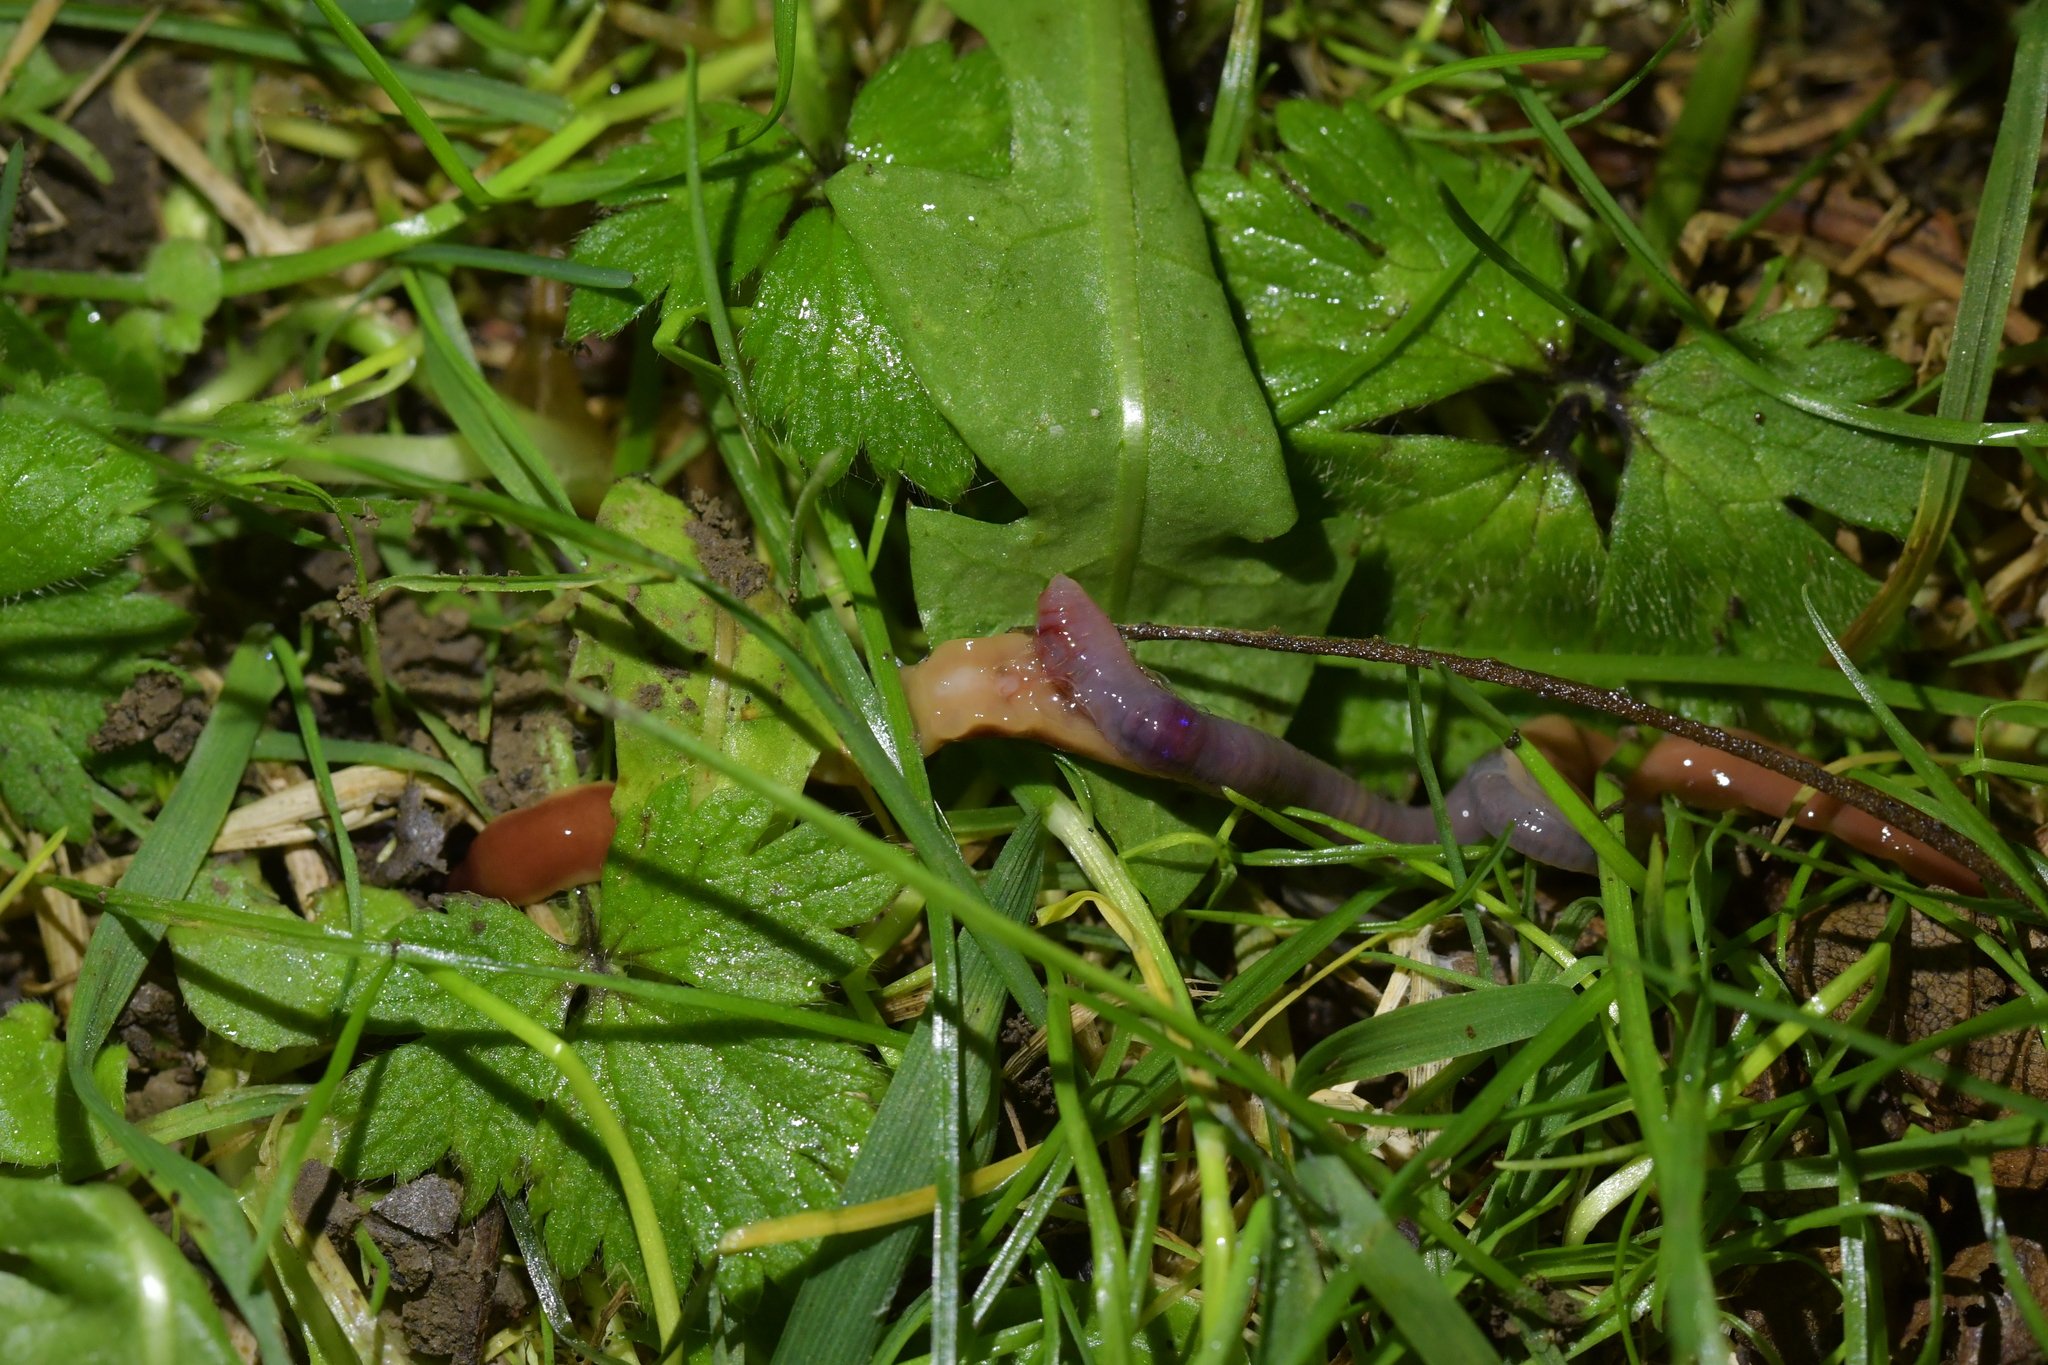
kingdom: Animalia
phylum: Platyhelminthes
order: Tricladida
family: Geoplanidae
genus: Arthurdendyus
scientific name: Arthurdendyus testaceus
